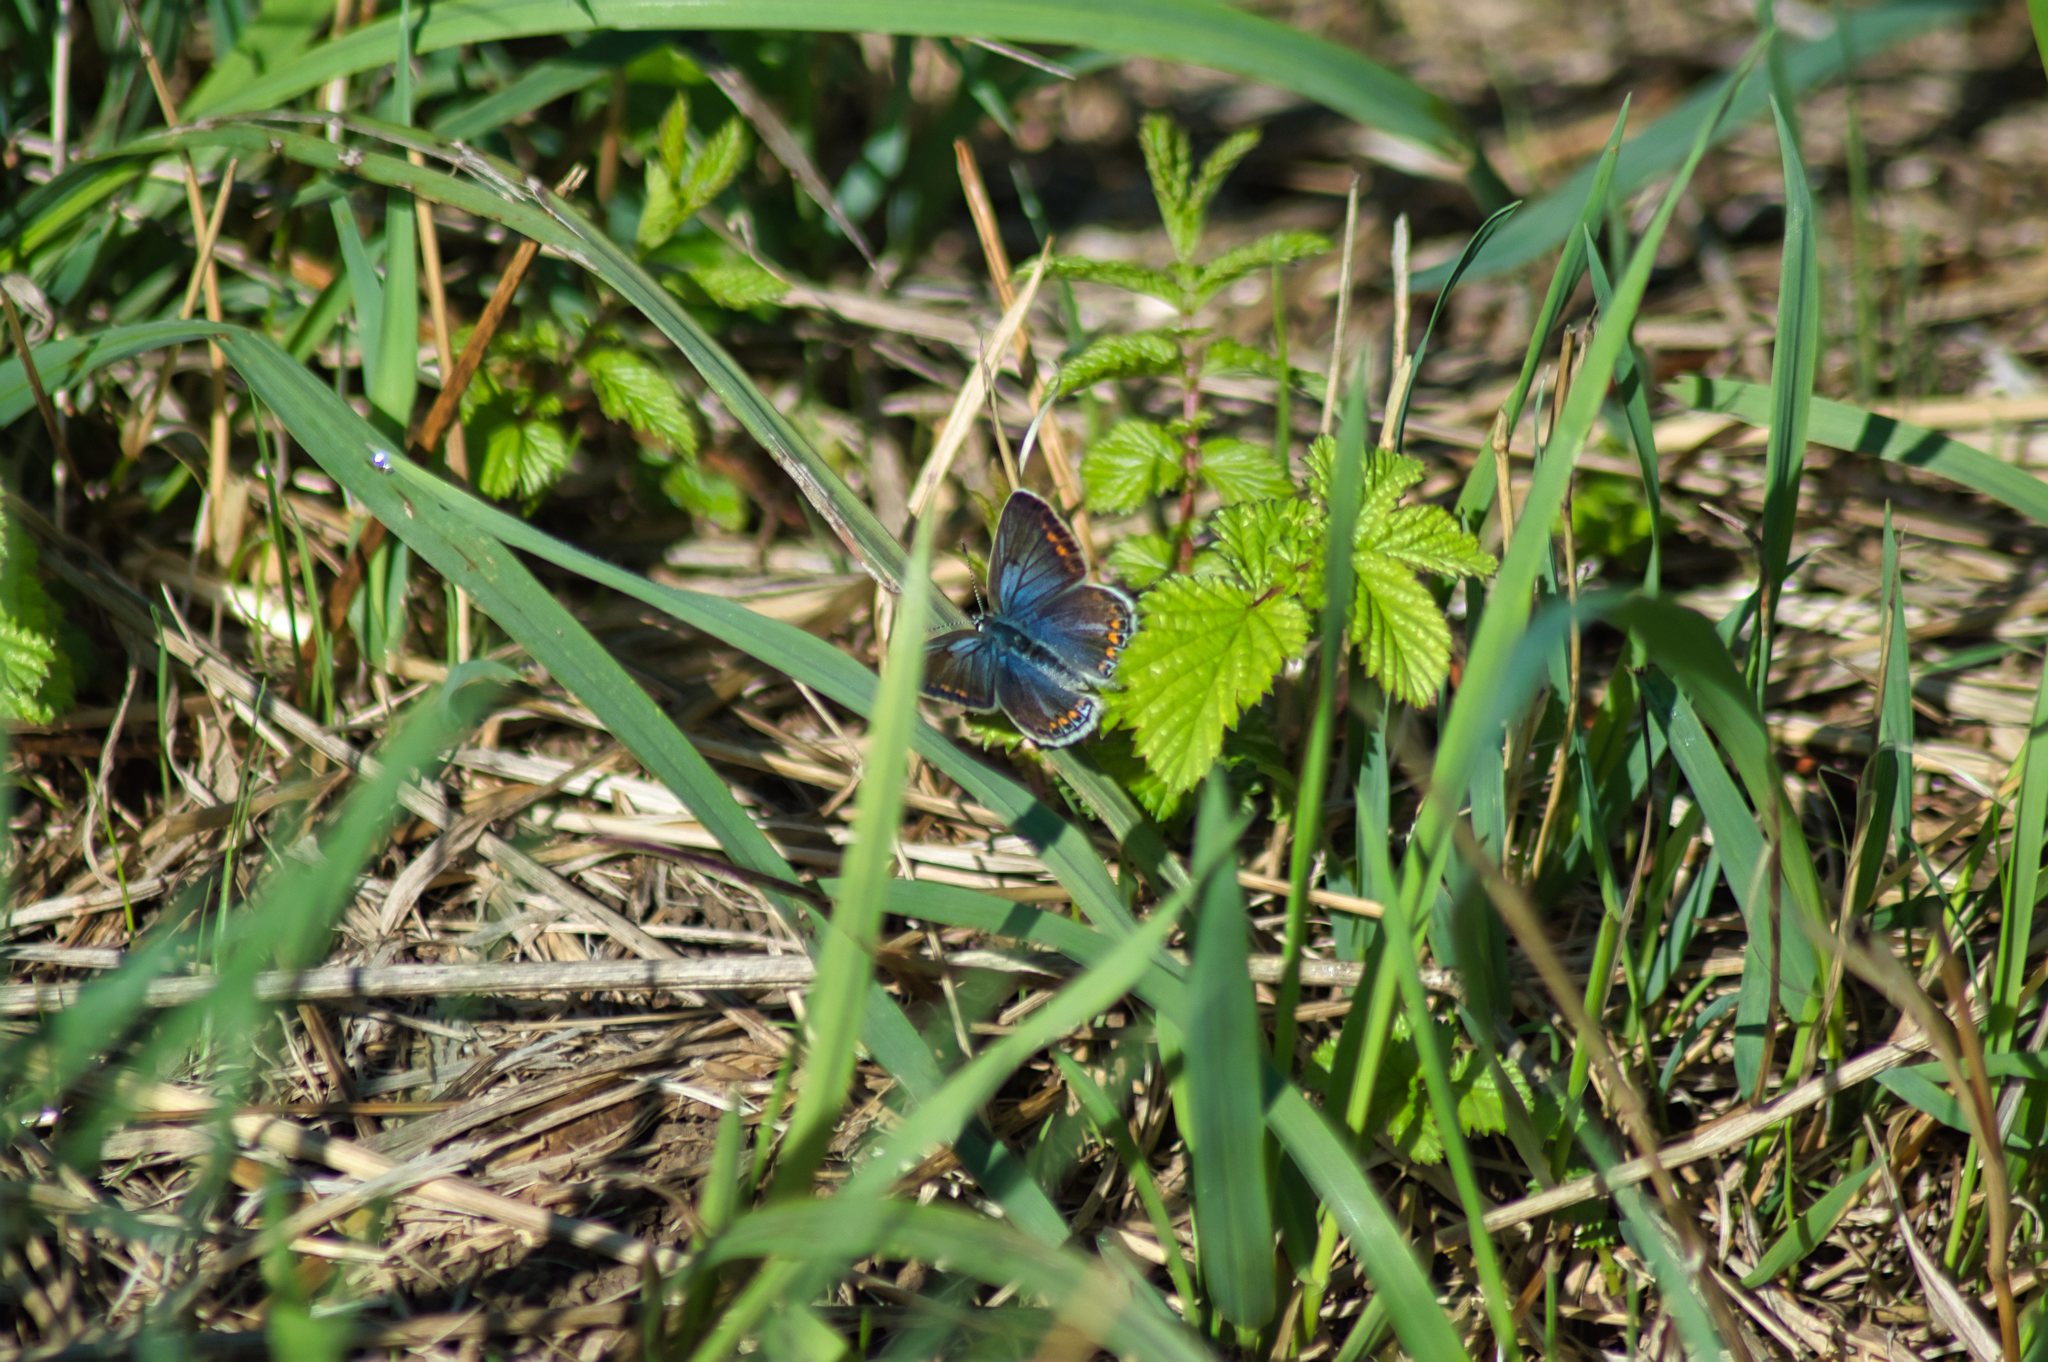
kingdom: Animalia
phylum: Arthropoda
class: Insecta
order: Lepidoptera
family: Lycaenidae
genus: Polyommatus
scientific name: Polyommatus icarus
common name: Common blue
